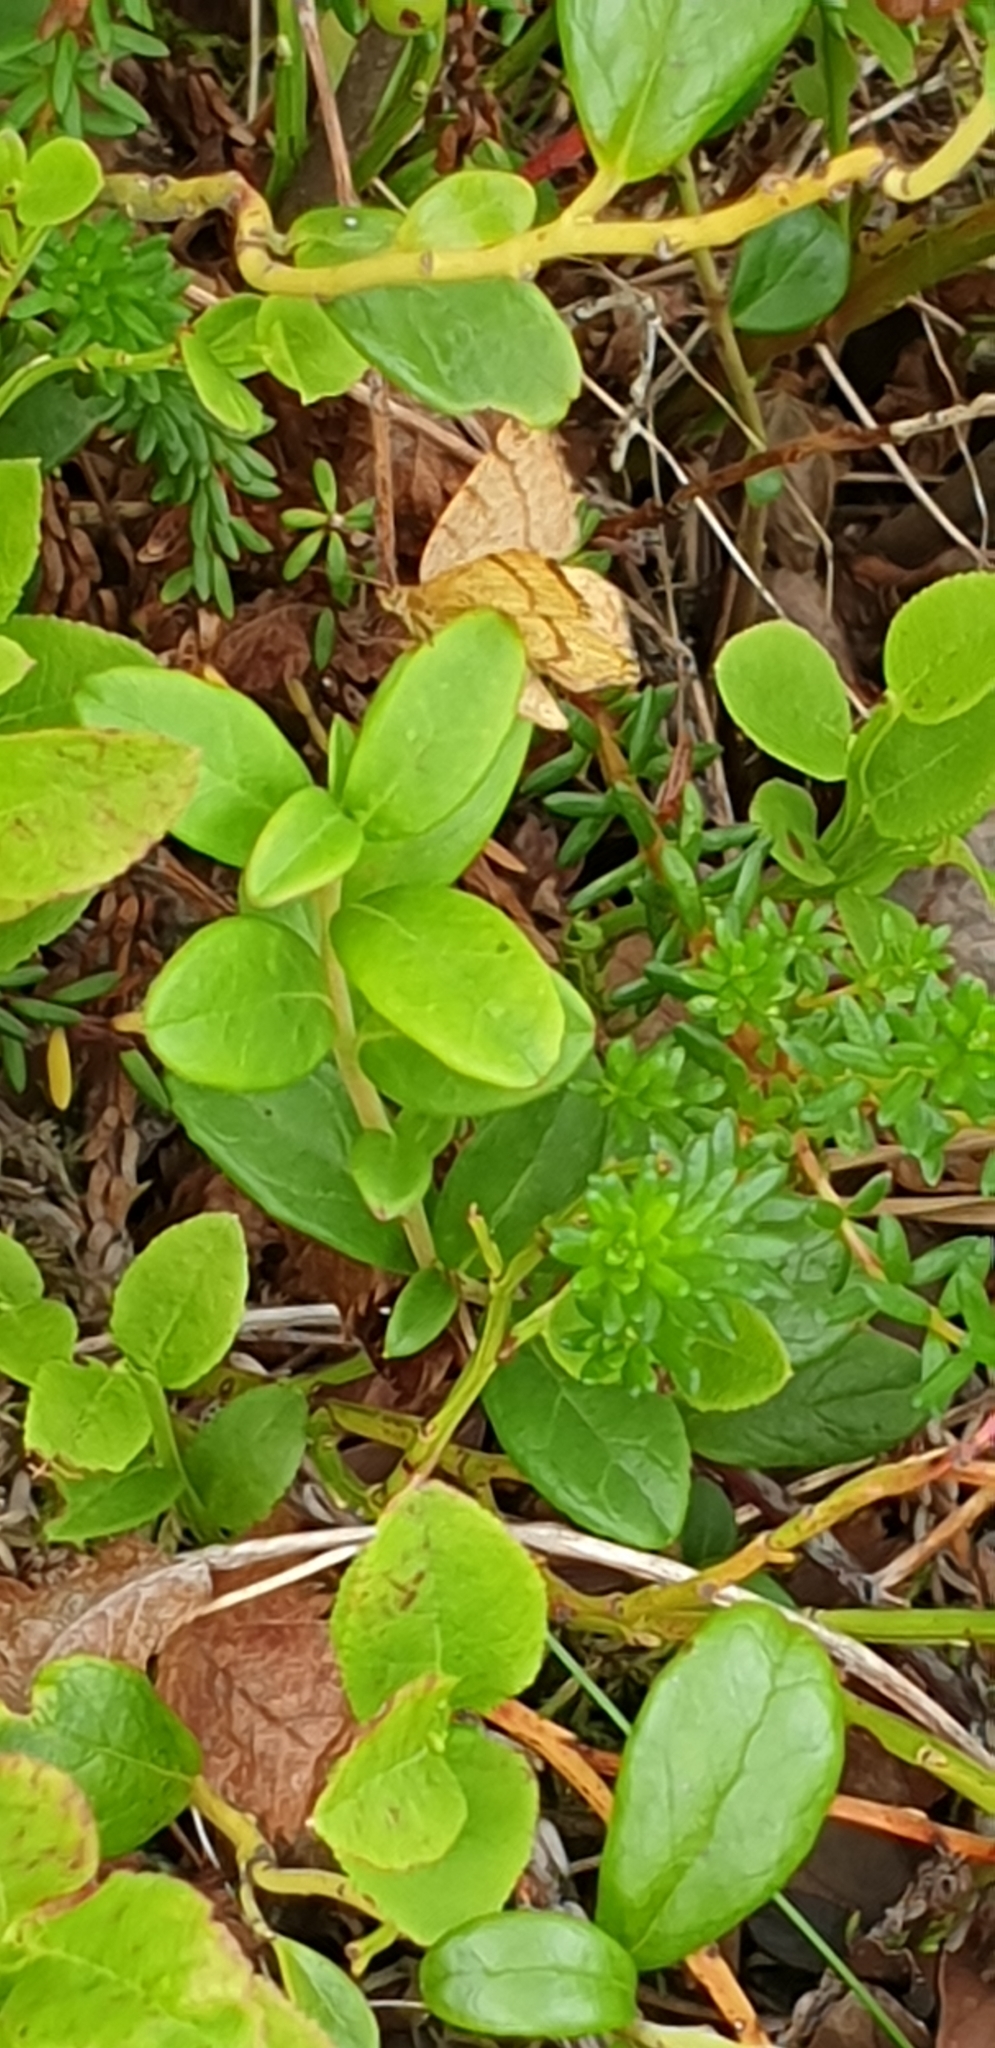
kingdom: Animalia
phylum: Arthropoda
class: Insecta
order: Lepidoptera
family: Geometridae
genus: Macaria
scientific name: Macaria brunneata
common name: Rannoch looper
